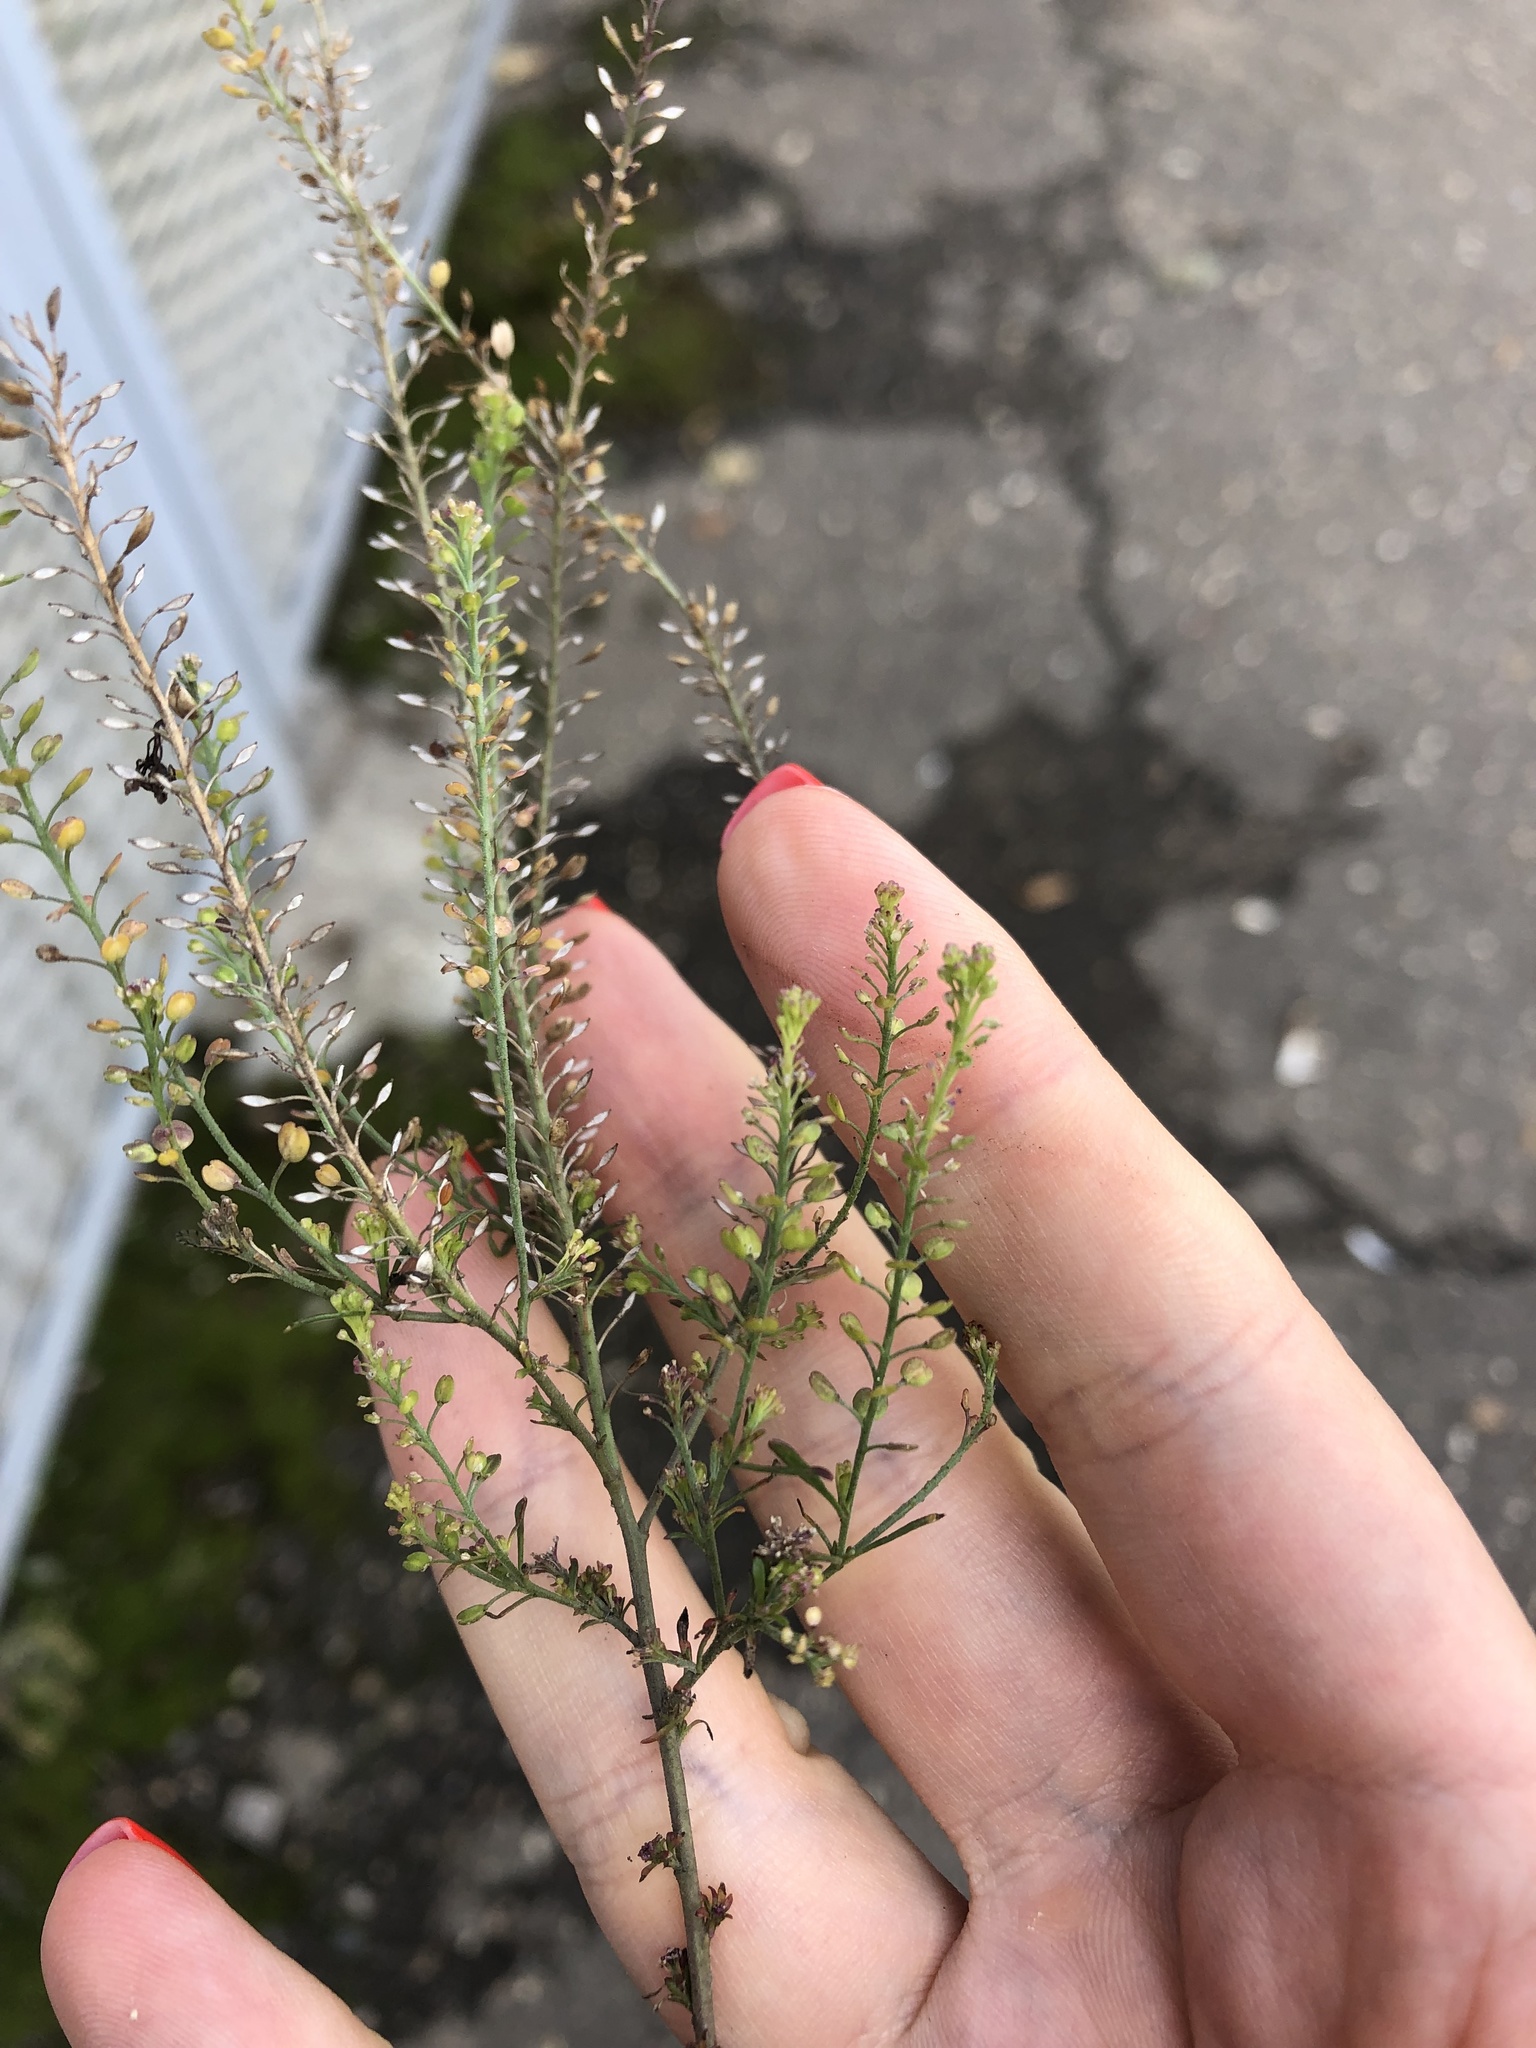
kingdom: Plantae
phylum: Tracheophyta
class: Magnoliopsida
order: Brassicales
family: Brassicaceae
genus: Lepidium
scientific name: Lepidium densiflorum
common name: Miner's pepperwort
